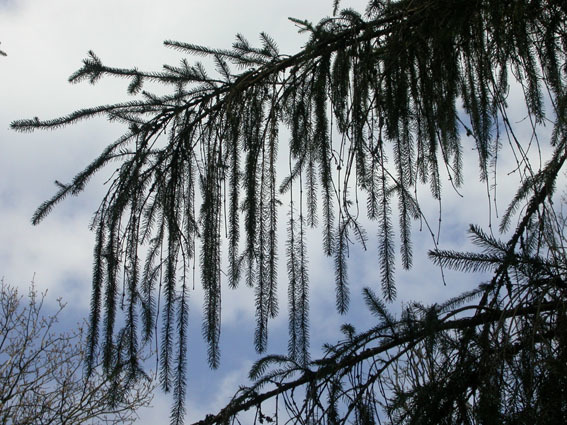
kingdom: Plantae
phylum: Tracheophyta
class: Pinopsida
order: Pinales
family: Pinaceae
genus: Picea
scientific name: Picea abies
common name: Norway spruce
